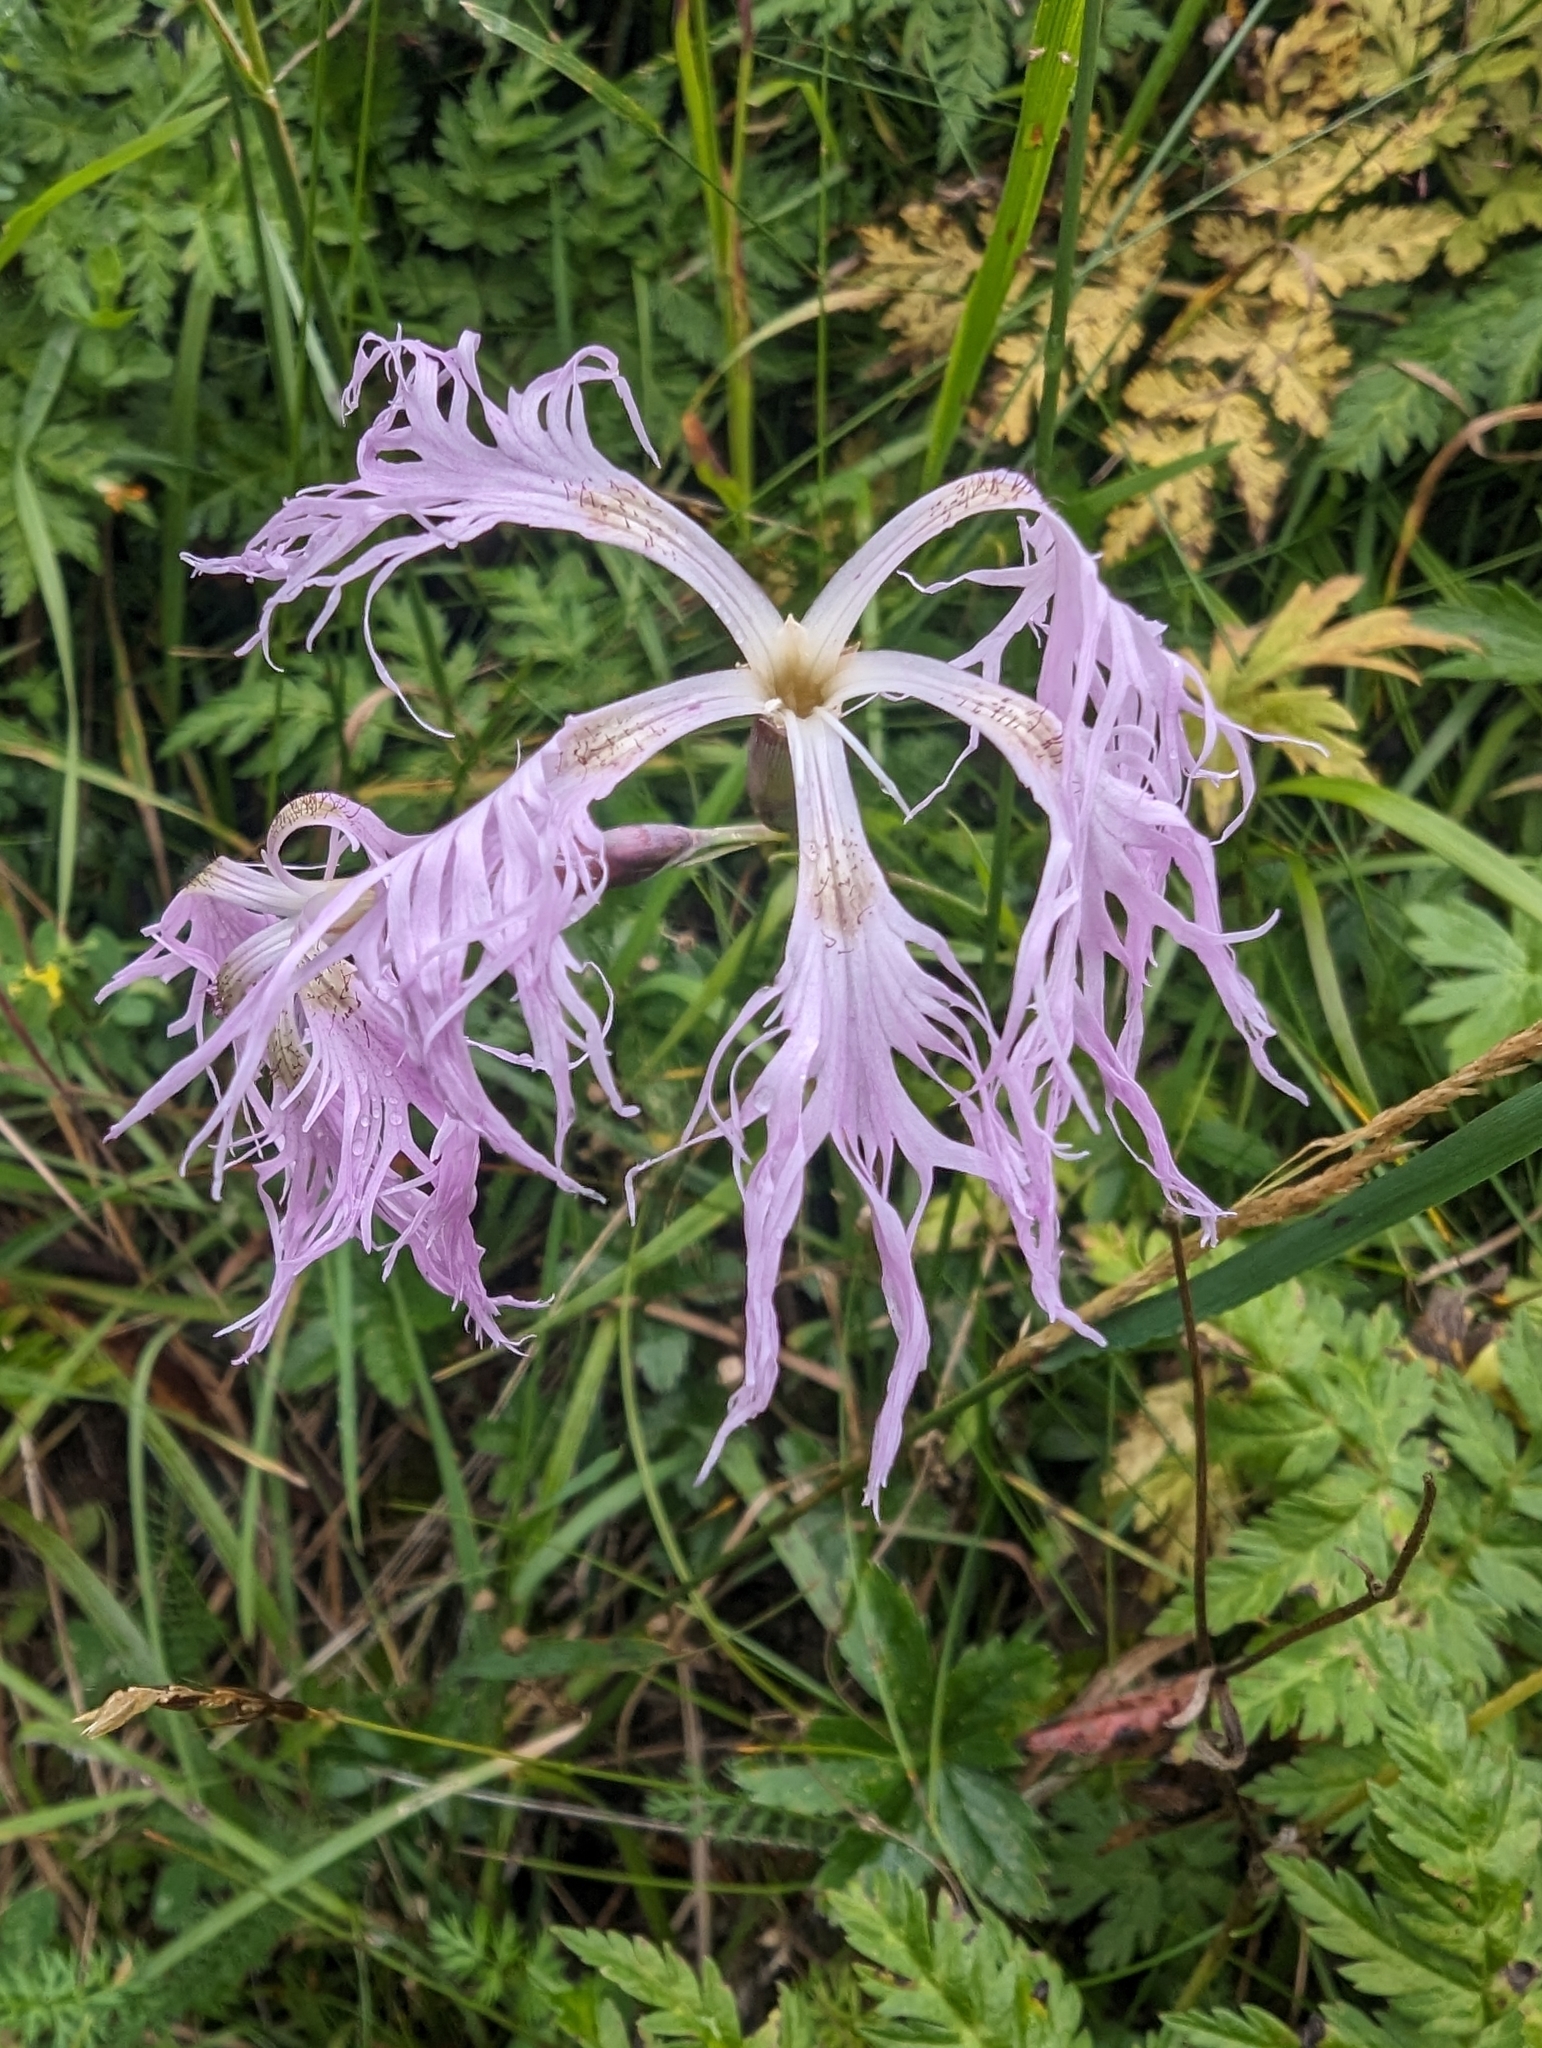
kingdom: Plantae
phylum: Tracheophyta
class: Magnoliopsida
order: Caryophyllales
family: Caryophyllaceae
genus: Dianthus
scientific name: Dianthus superbus
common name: Fringed pink
